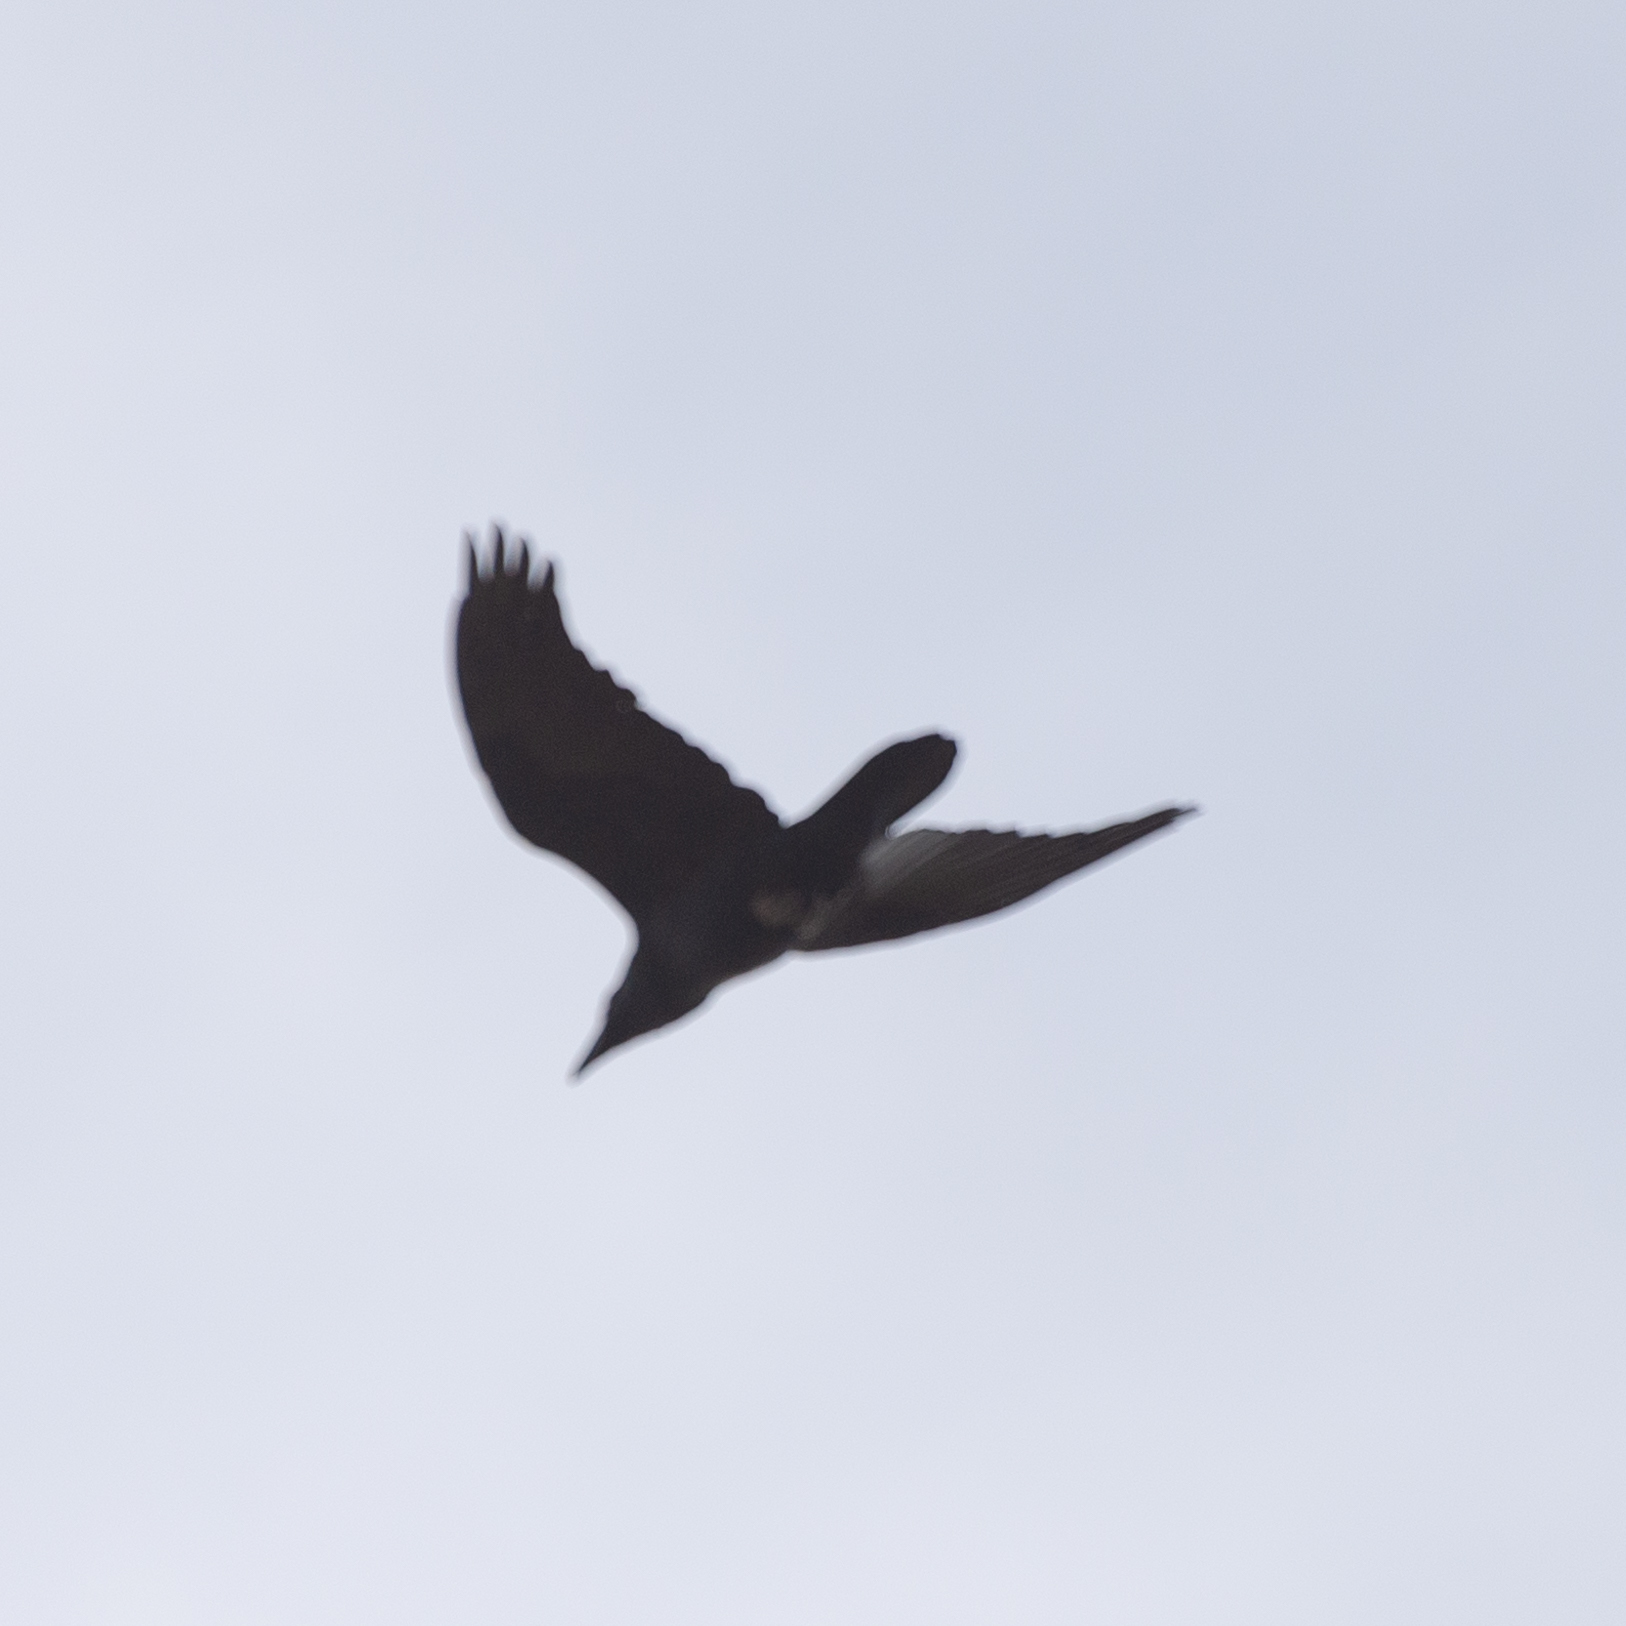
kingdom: Animalia
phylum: Chordata
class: Aves
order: Passeriformes
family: Corvidae
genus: Corvus
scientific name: Corvus corax
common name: Common raven
